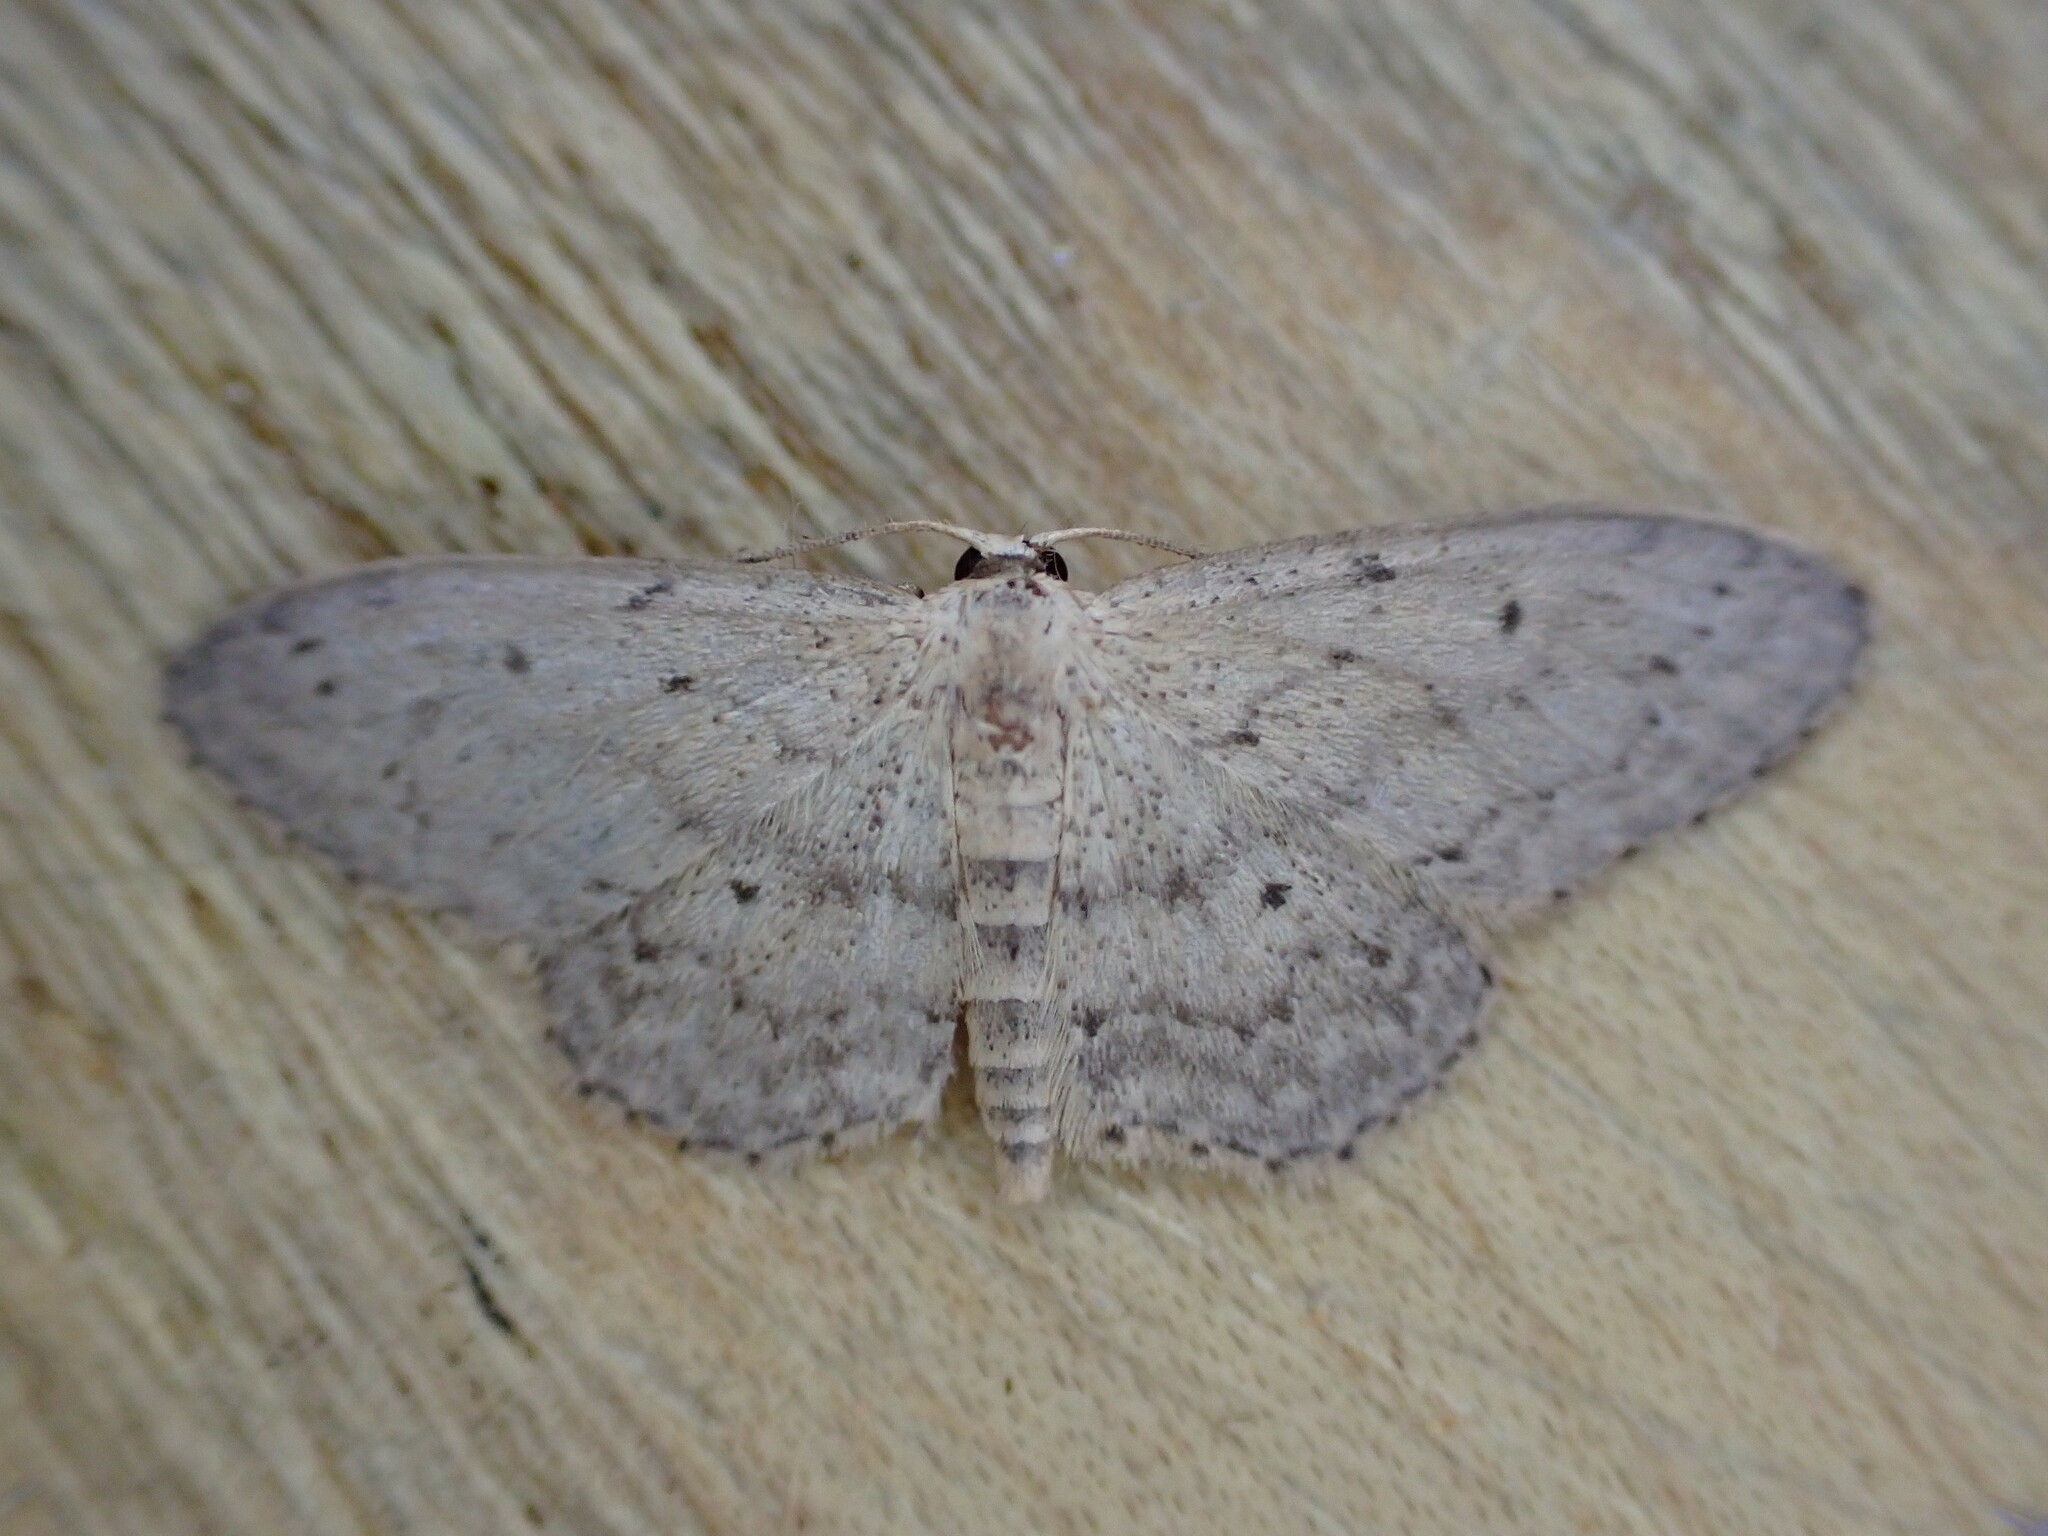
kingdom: Animalia
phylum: Arthropoda
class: Insecta
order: Lepidoptera
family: Geometridae
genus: Idaea
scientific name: Idaea seriata
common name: Small dusty wave
